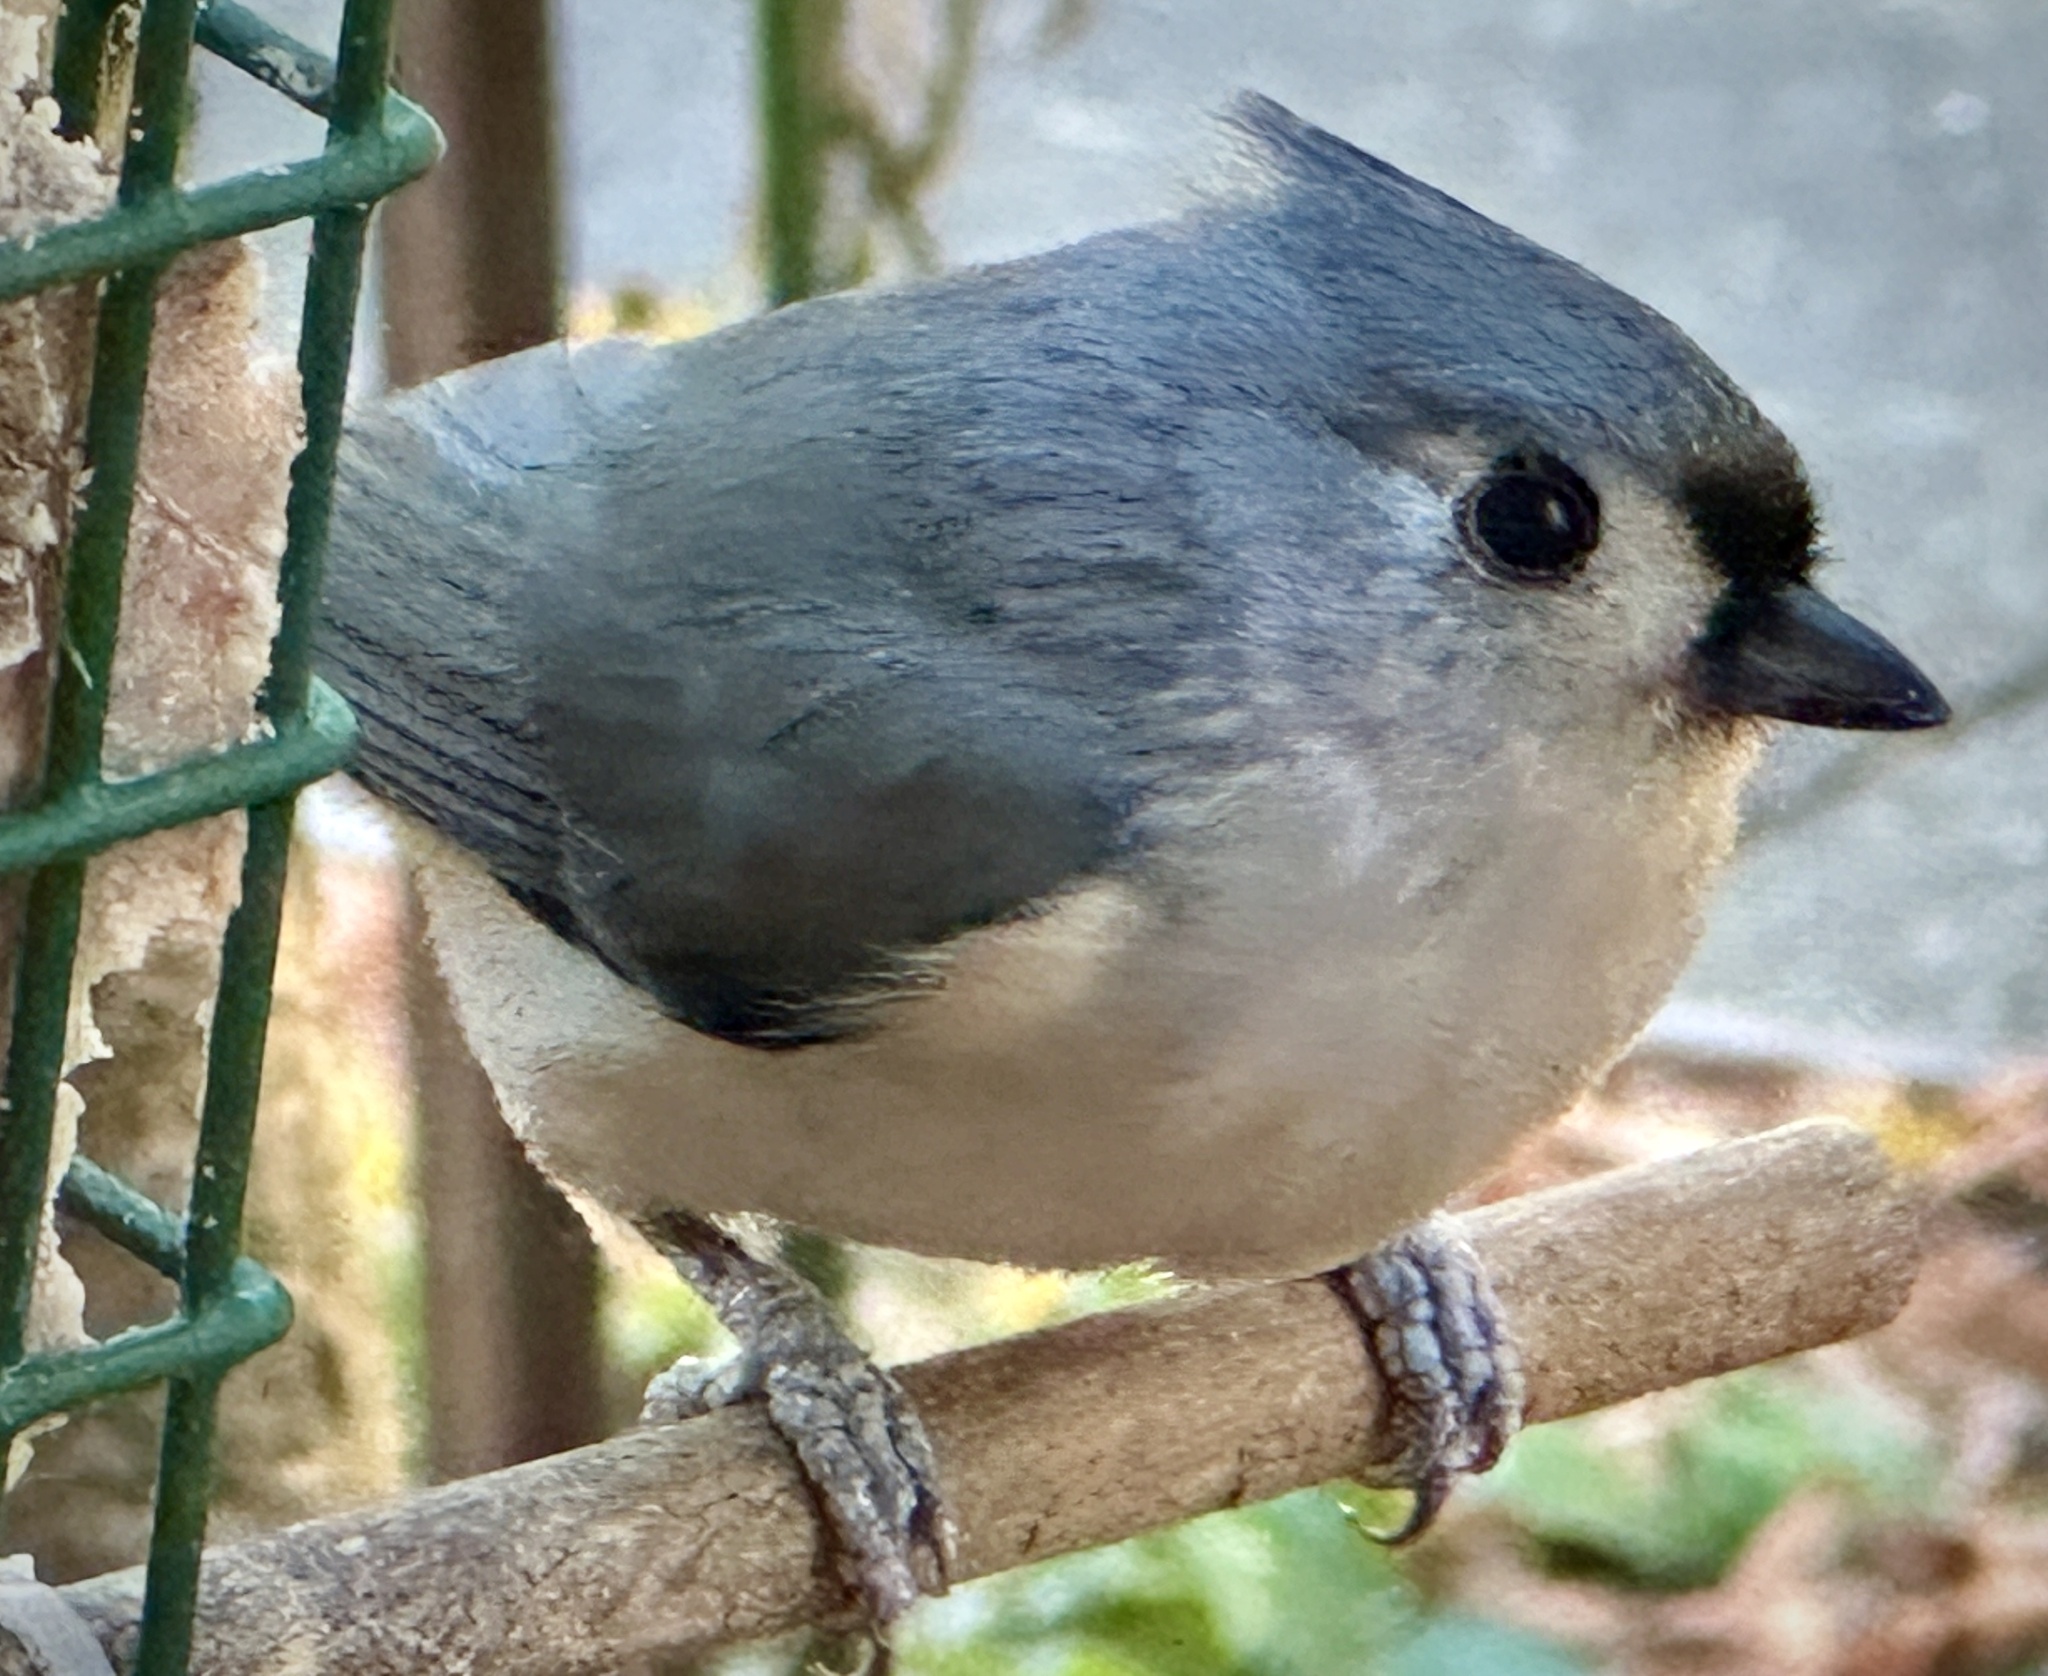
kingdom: Animalia
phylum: Chordata
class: Aves
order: Passeriformes
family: Paridae
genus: Baeolophus
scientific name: Baeolophus bicolor
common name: Tufted titmouse
